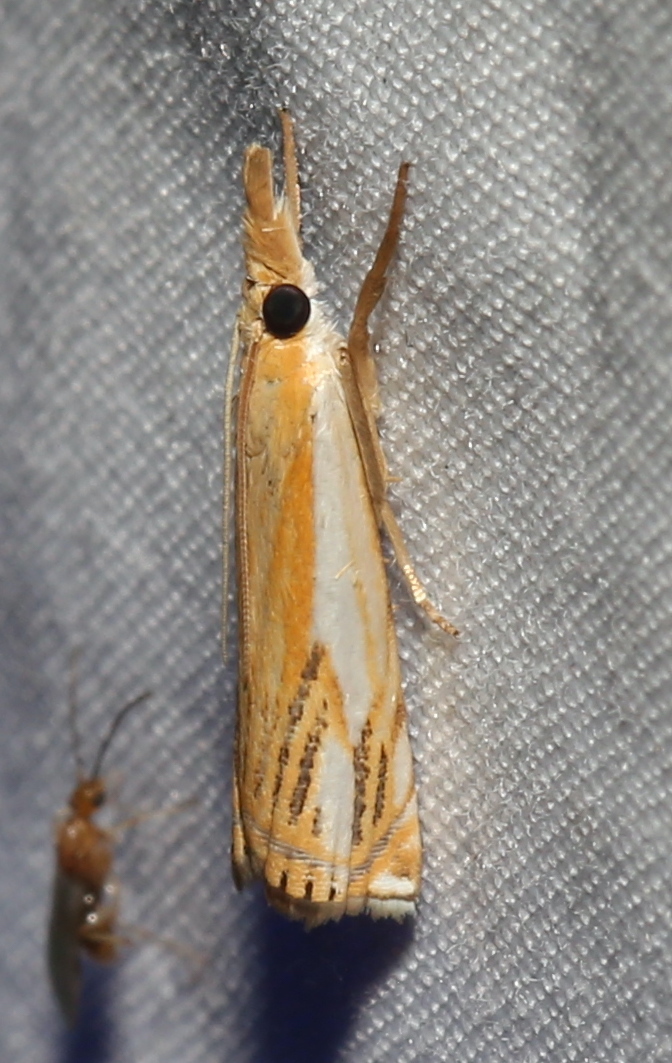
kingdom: Animalia
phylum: Arthropoda
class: Insecta
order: Lepidoptera
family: Crambidae
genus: Crambus
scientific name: Crambus agitatellus
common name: Double-banded grass-veneer
